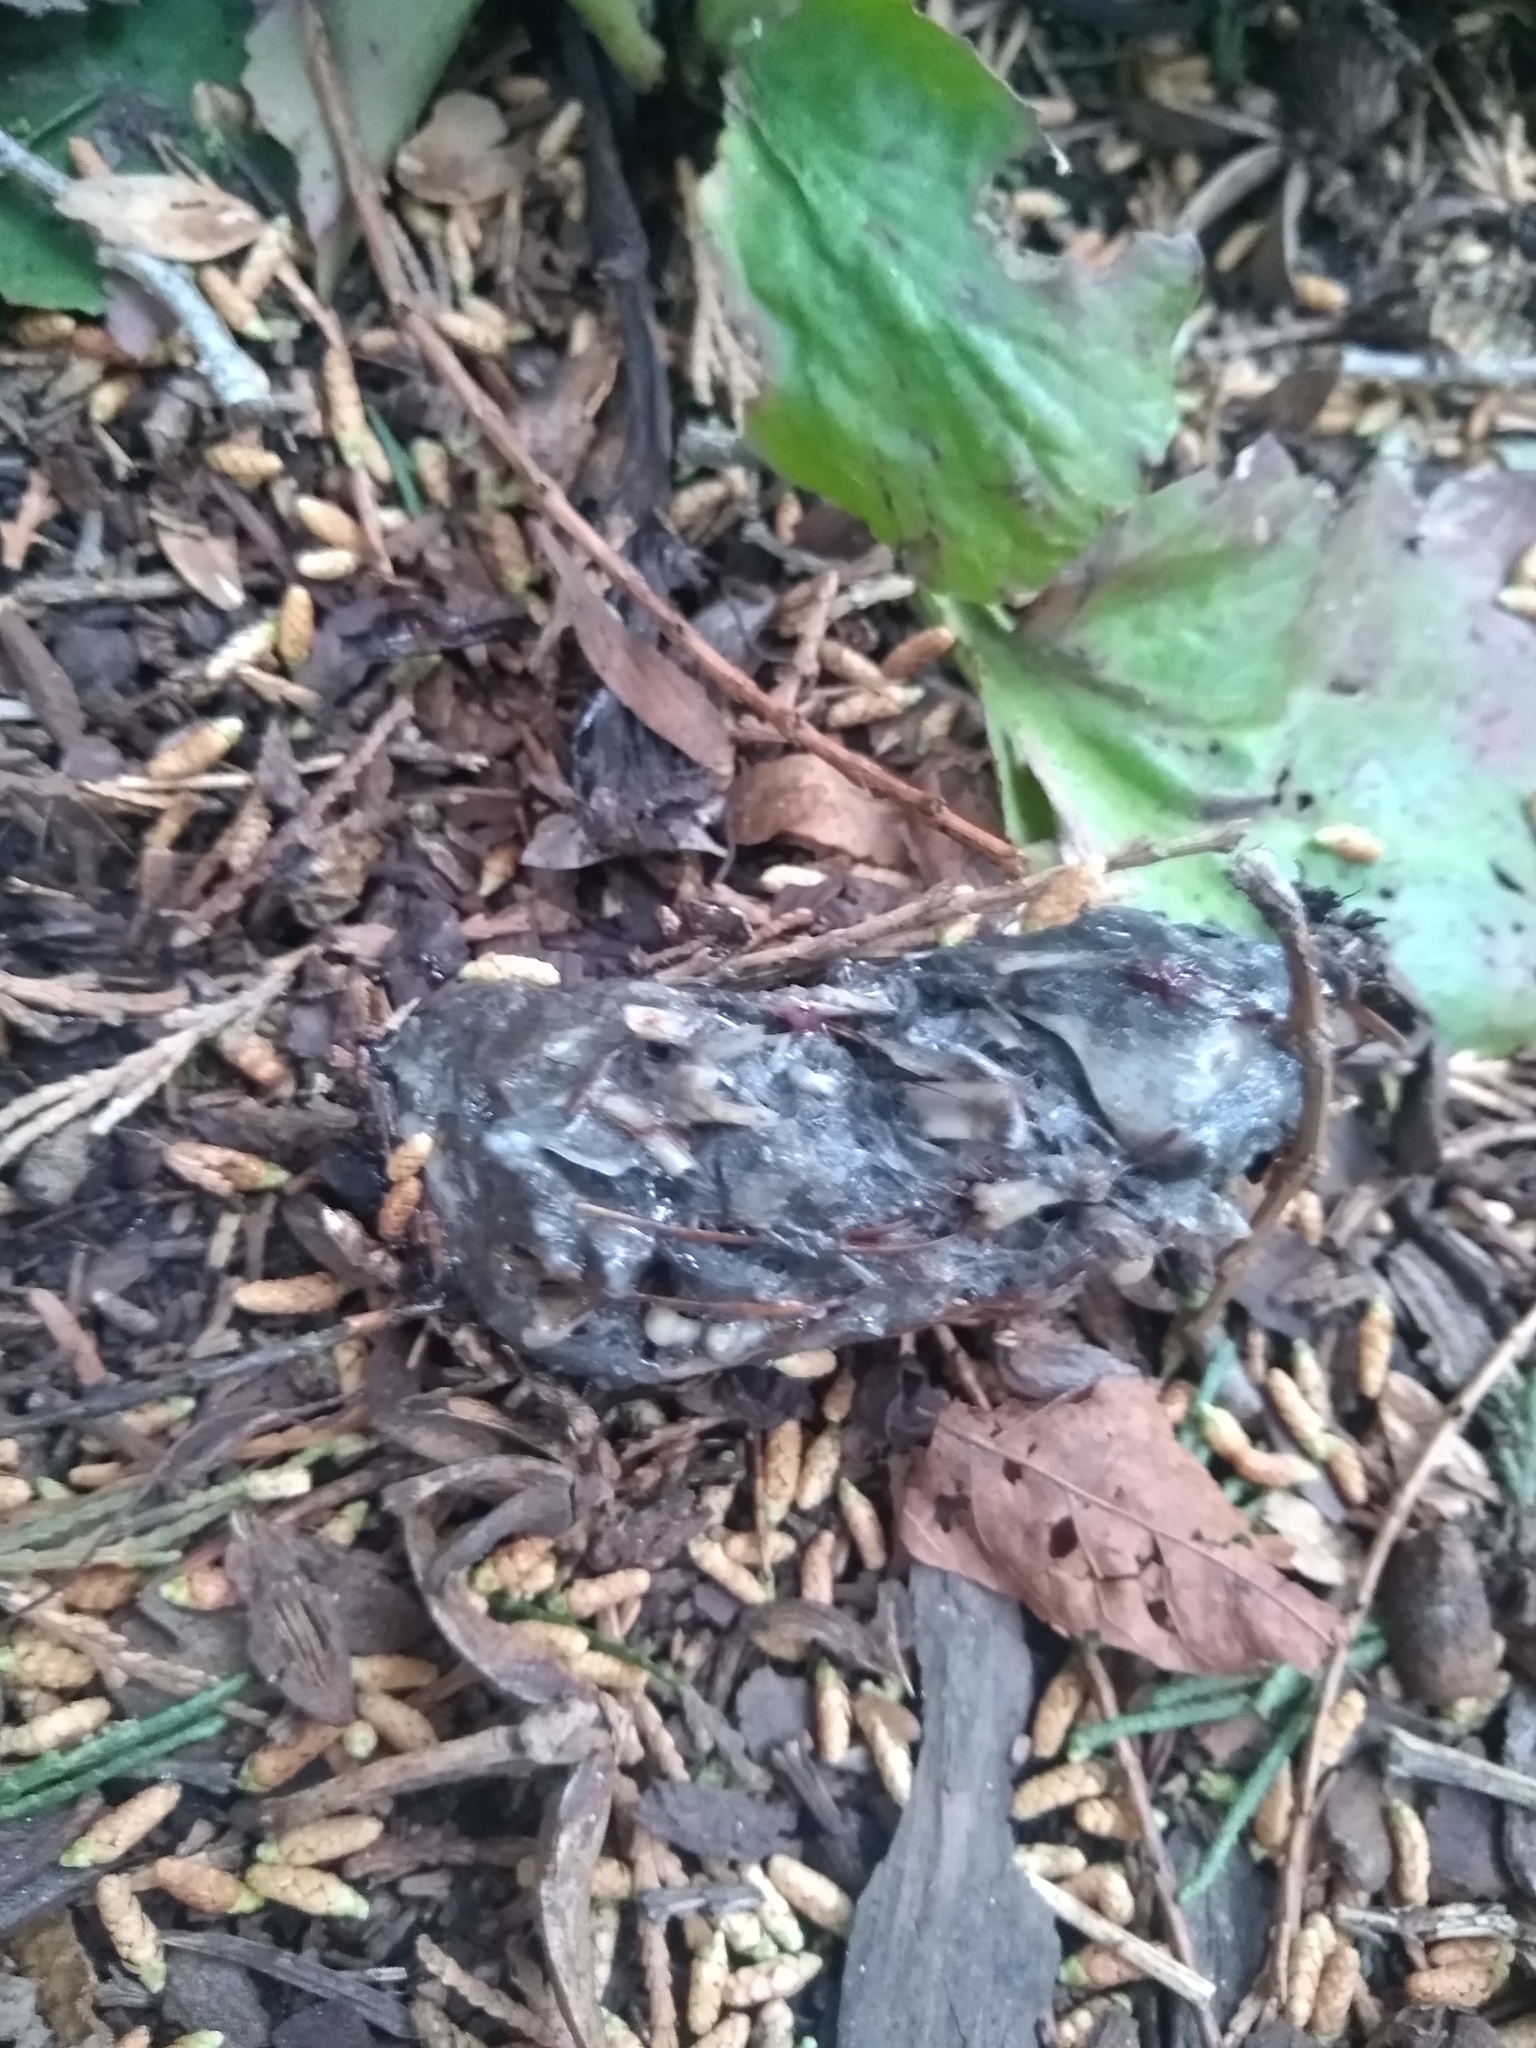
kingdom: Animalia
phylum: Chordata
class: Aves
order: Strigiformes
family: Strigidae
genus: Strix
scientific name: Strix varia
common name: Barred owl
